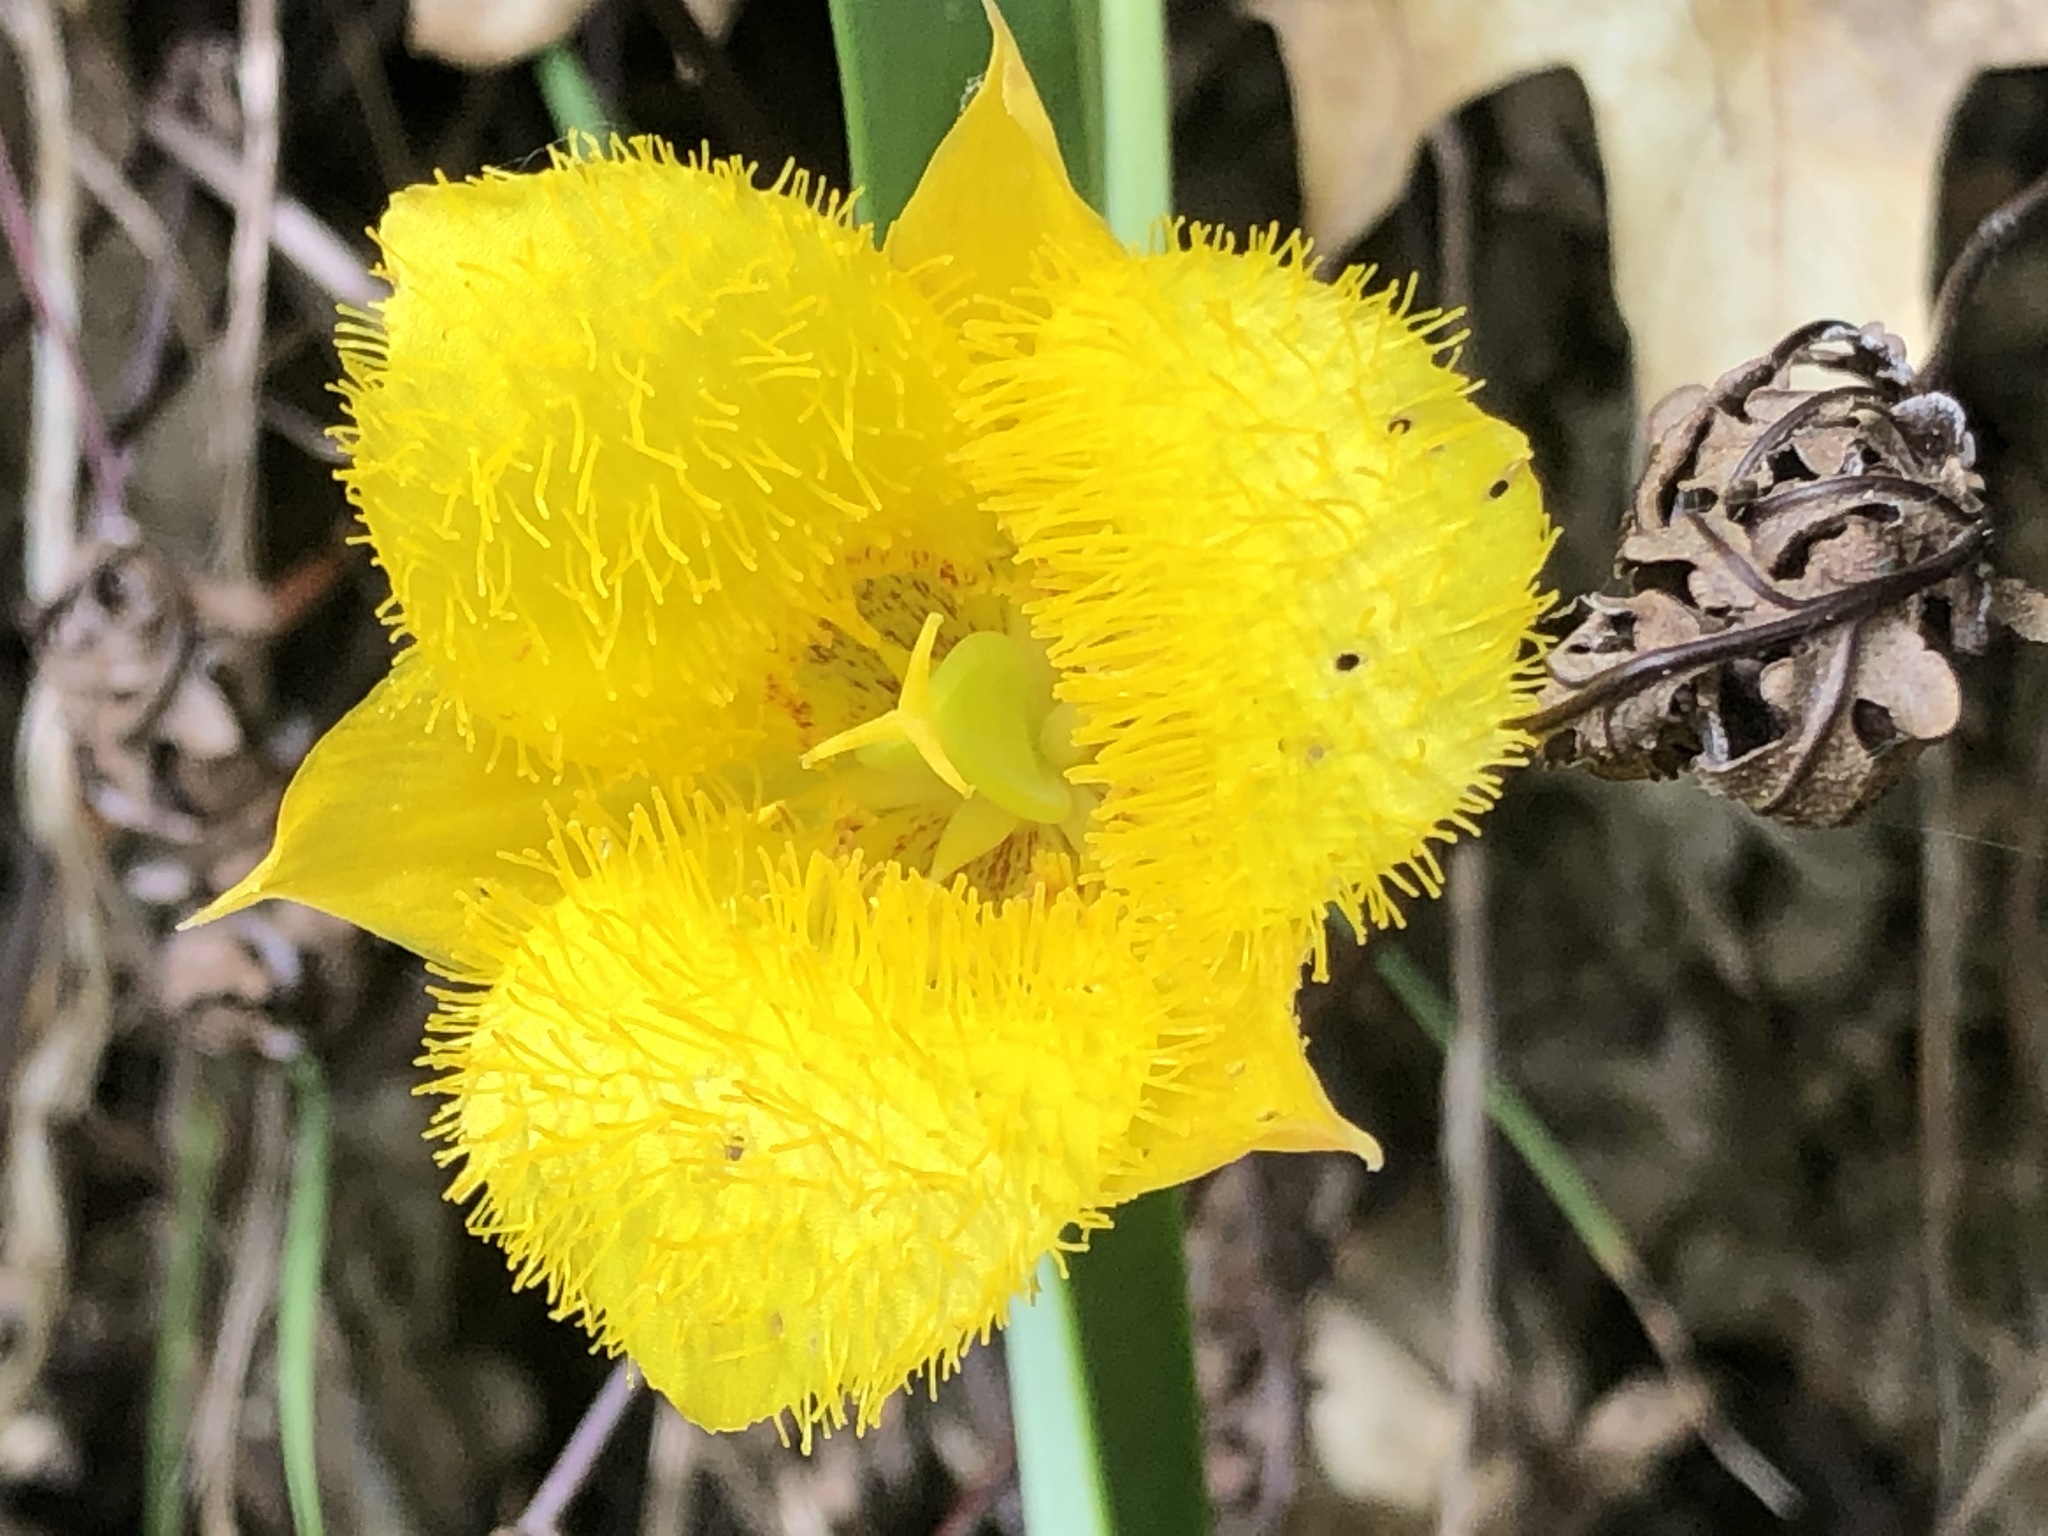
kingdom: Plantae
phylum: Tracheophyta
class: Liliopsida
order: Liliales
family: Liliaceae
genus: Calochortus
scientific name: Calochortus monophyllus
